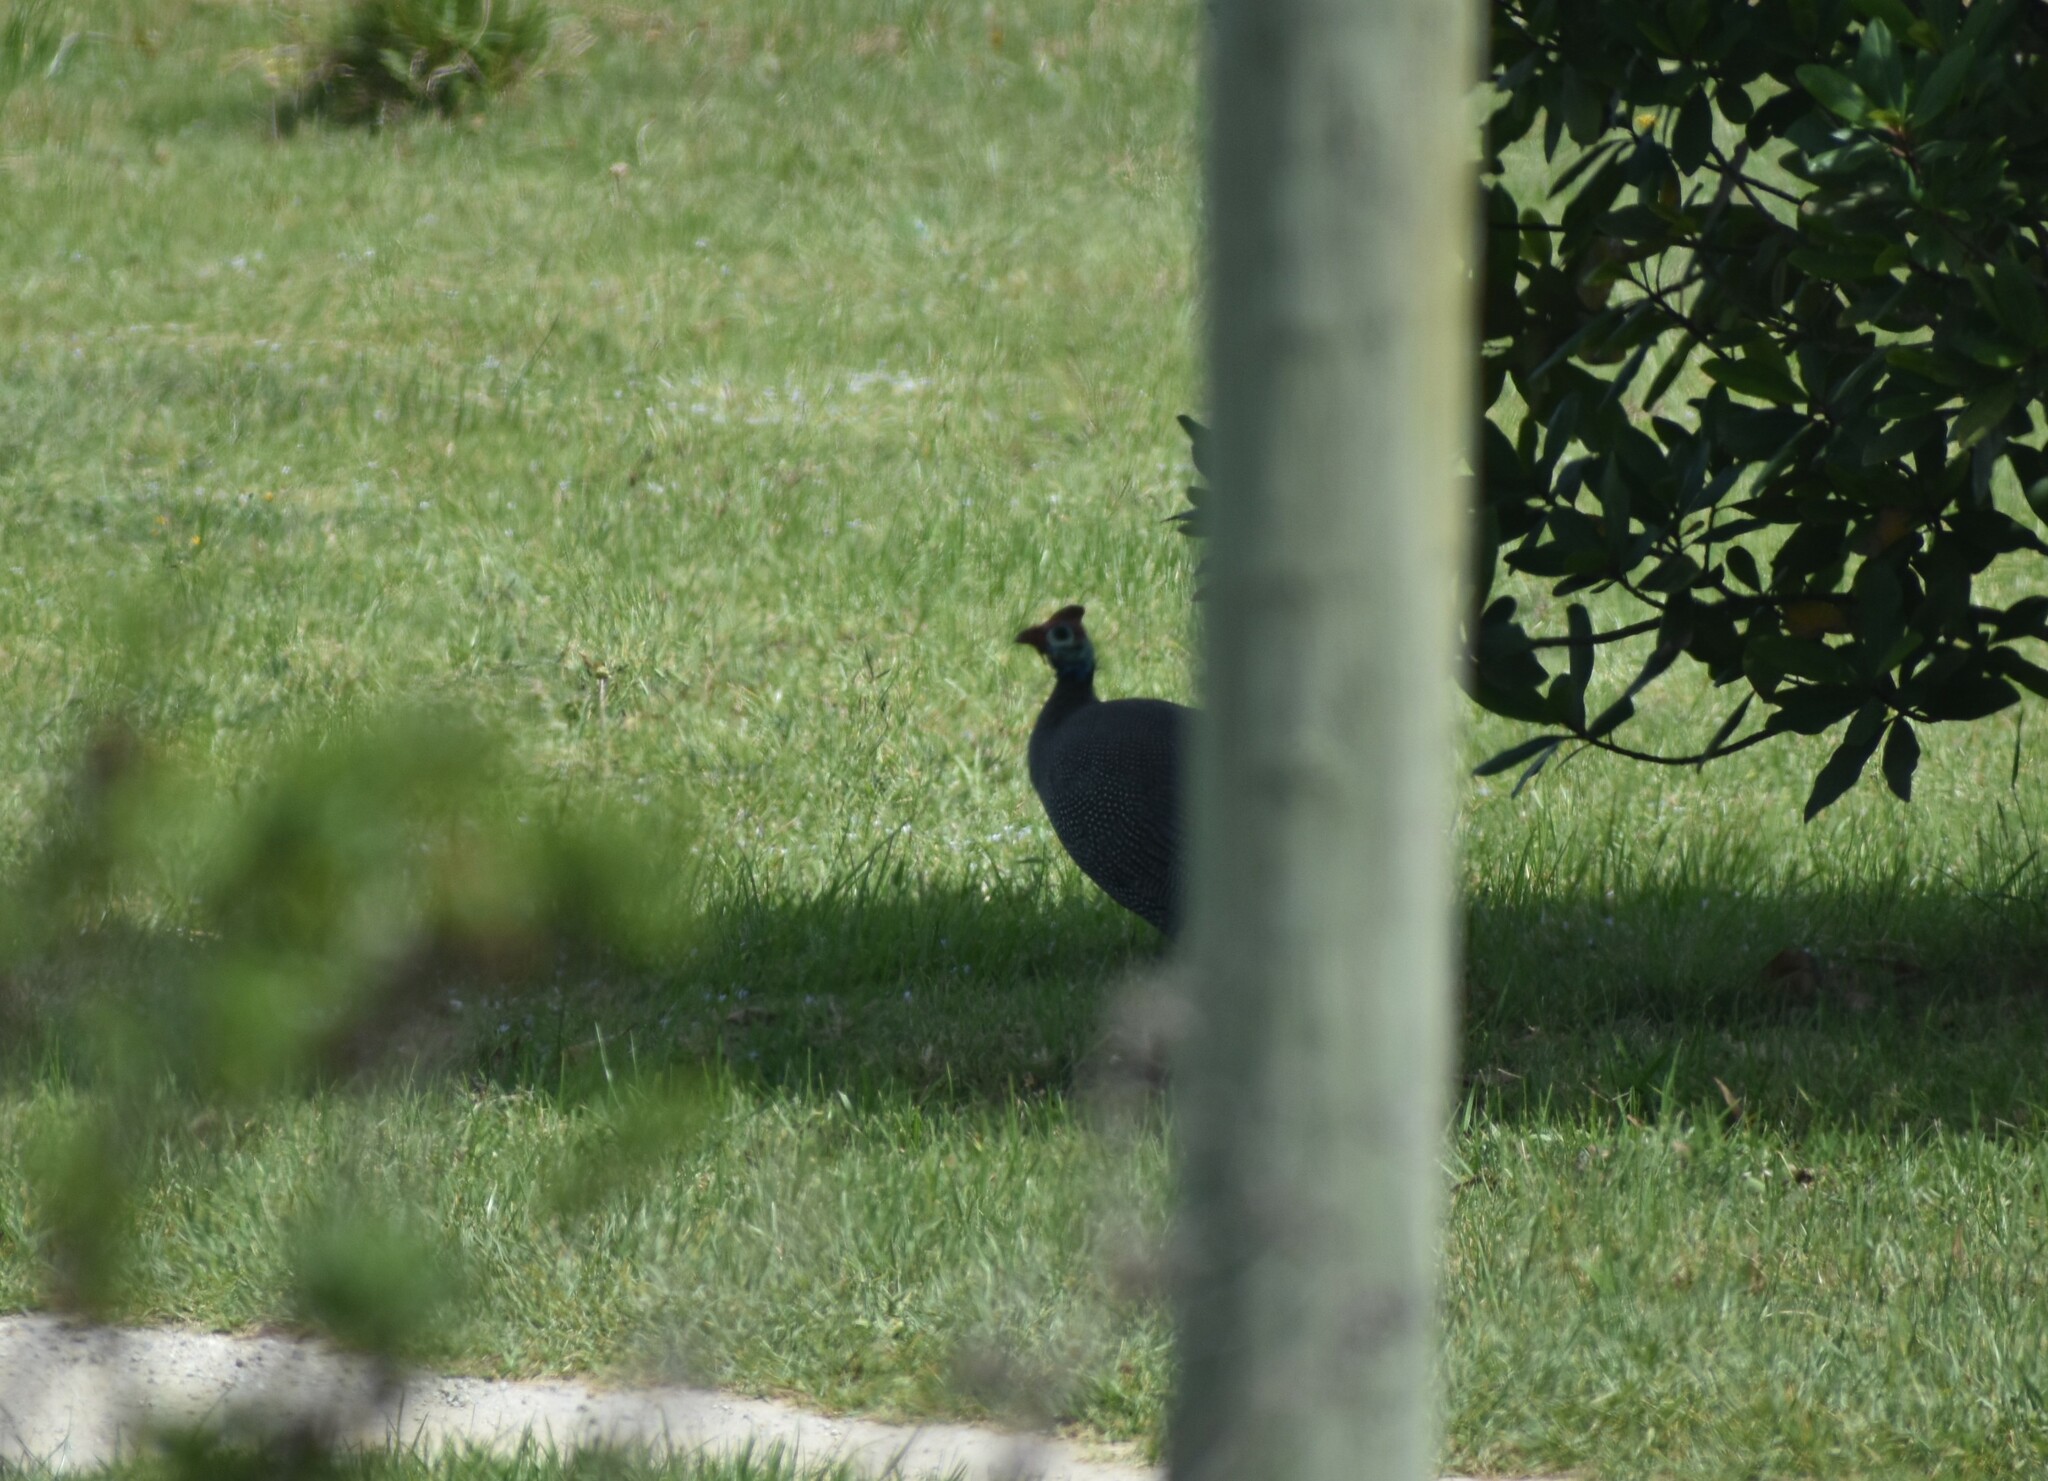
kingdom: Animalia
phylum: Chordata
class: Aves
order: Galliformes
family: Numididae
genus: Numida
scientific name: Numida meleagris
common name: Helmeted guineafowl
